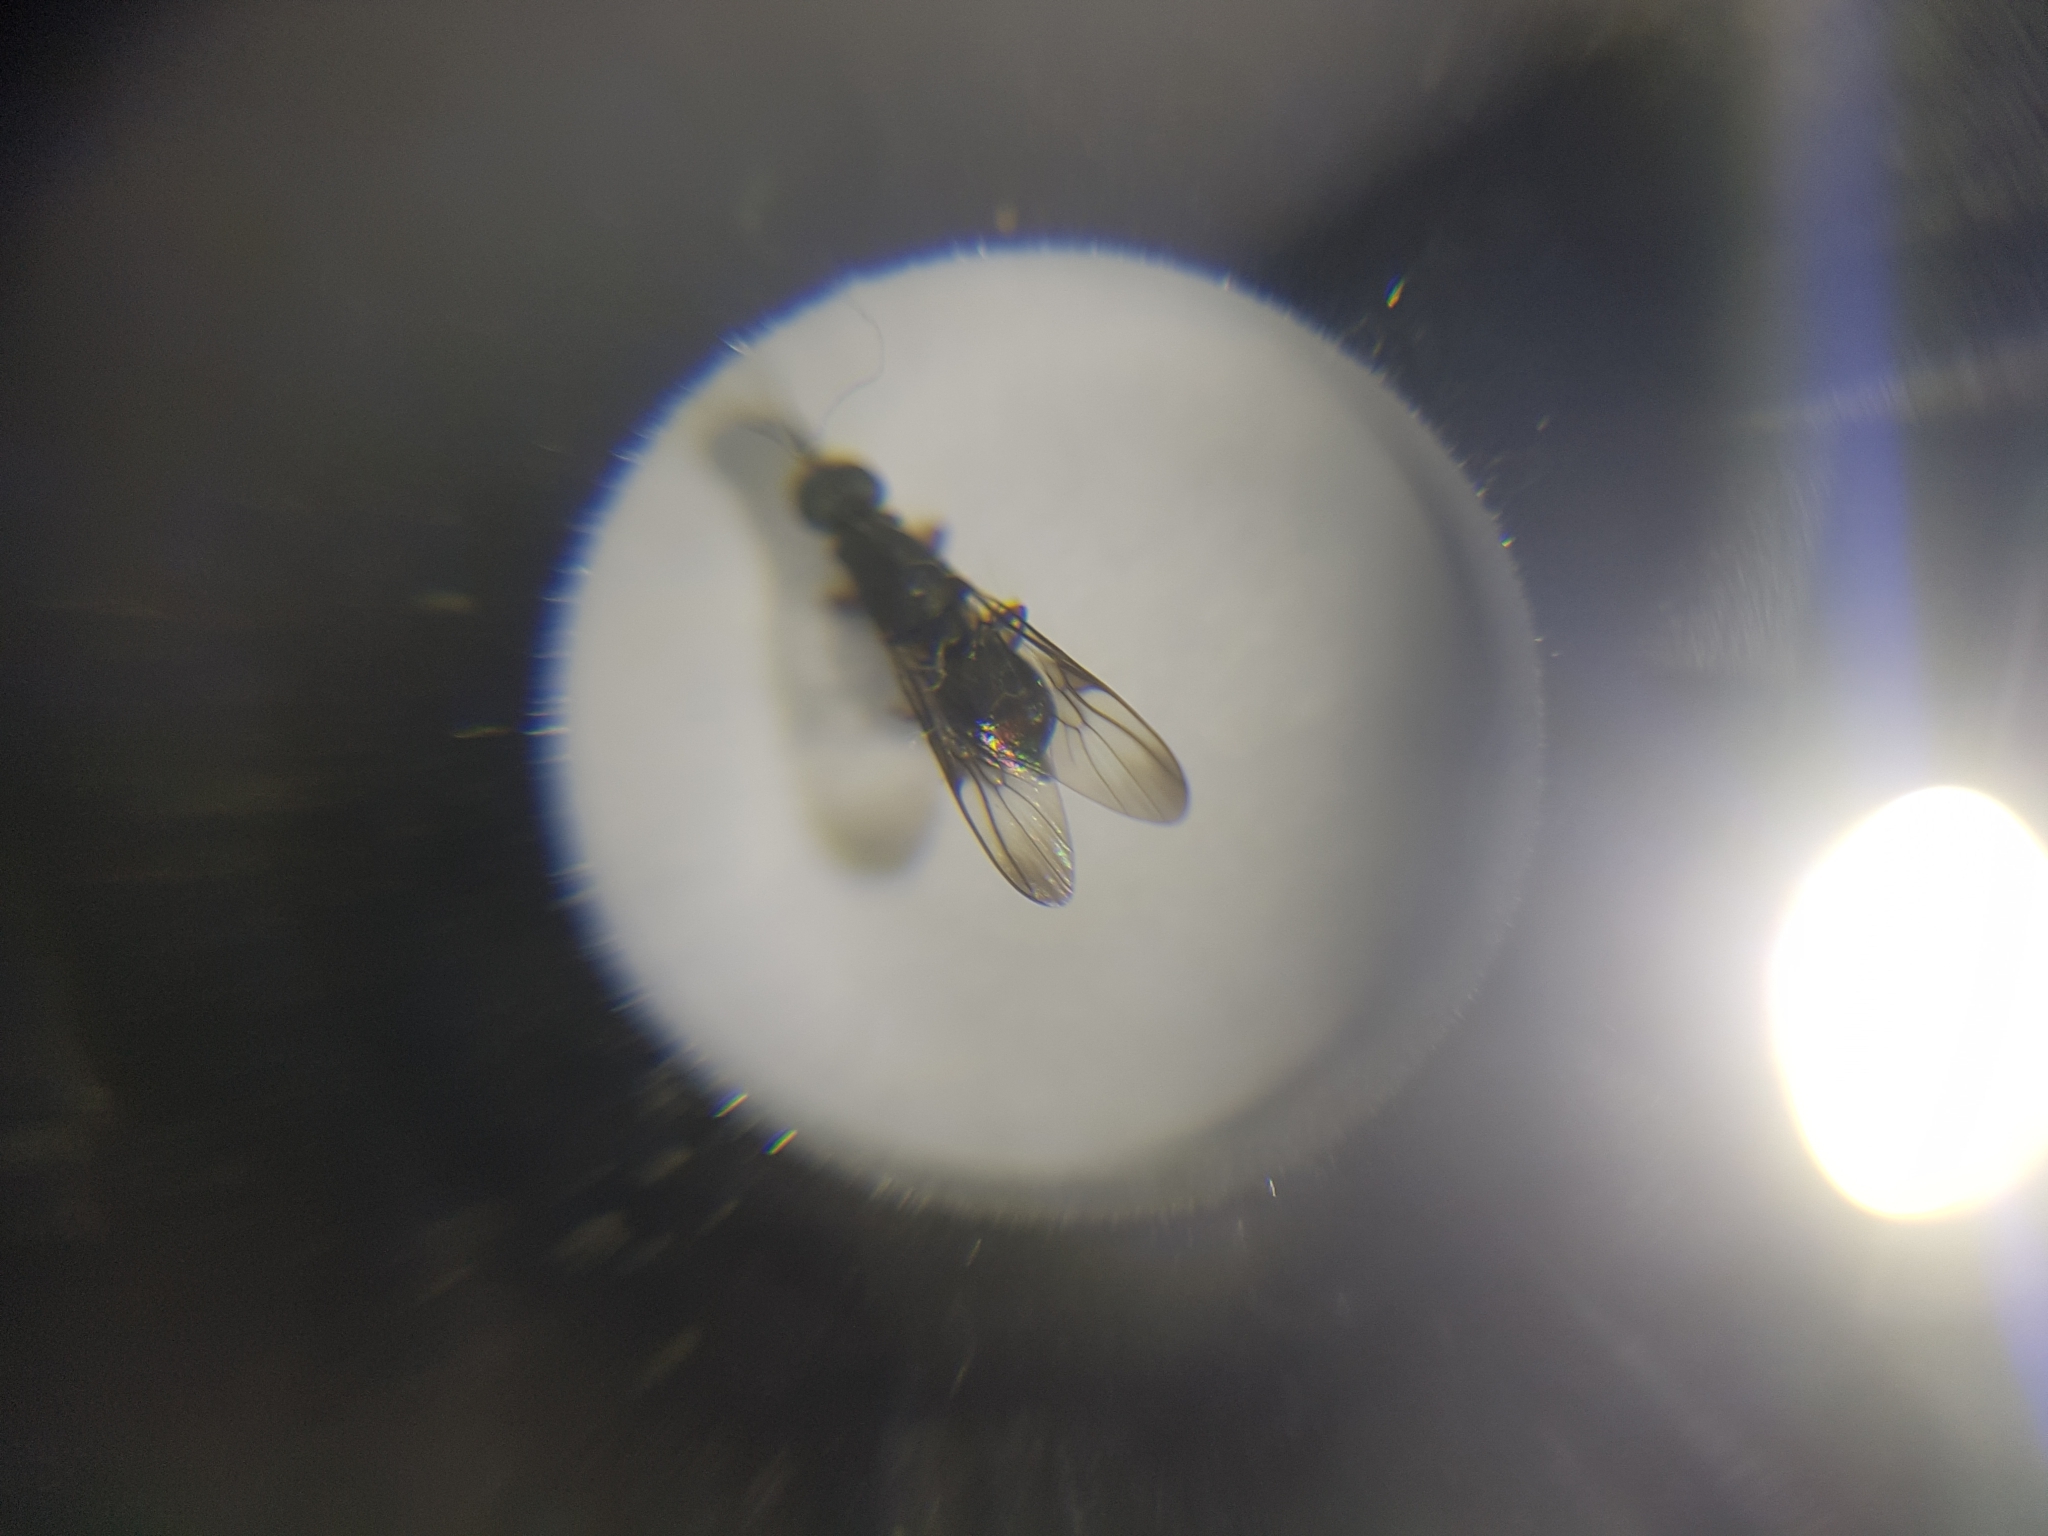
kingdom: Animalia
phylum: Arthropoda
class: Insecta
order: Diptera
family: Stratiomyidae
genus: Dysbiota
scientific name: Dysbiota peregrina
